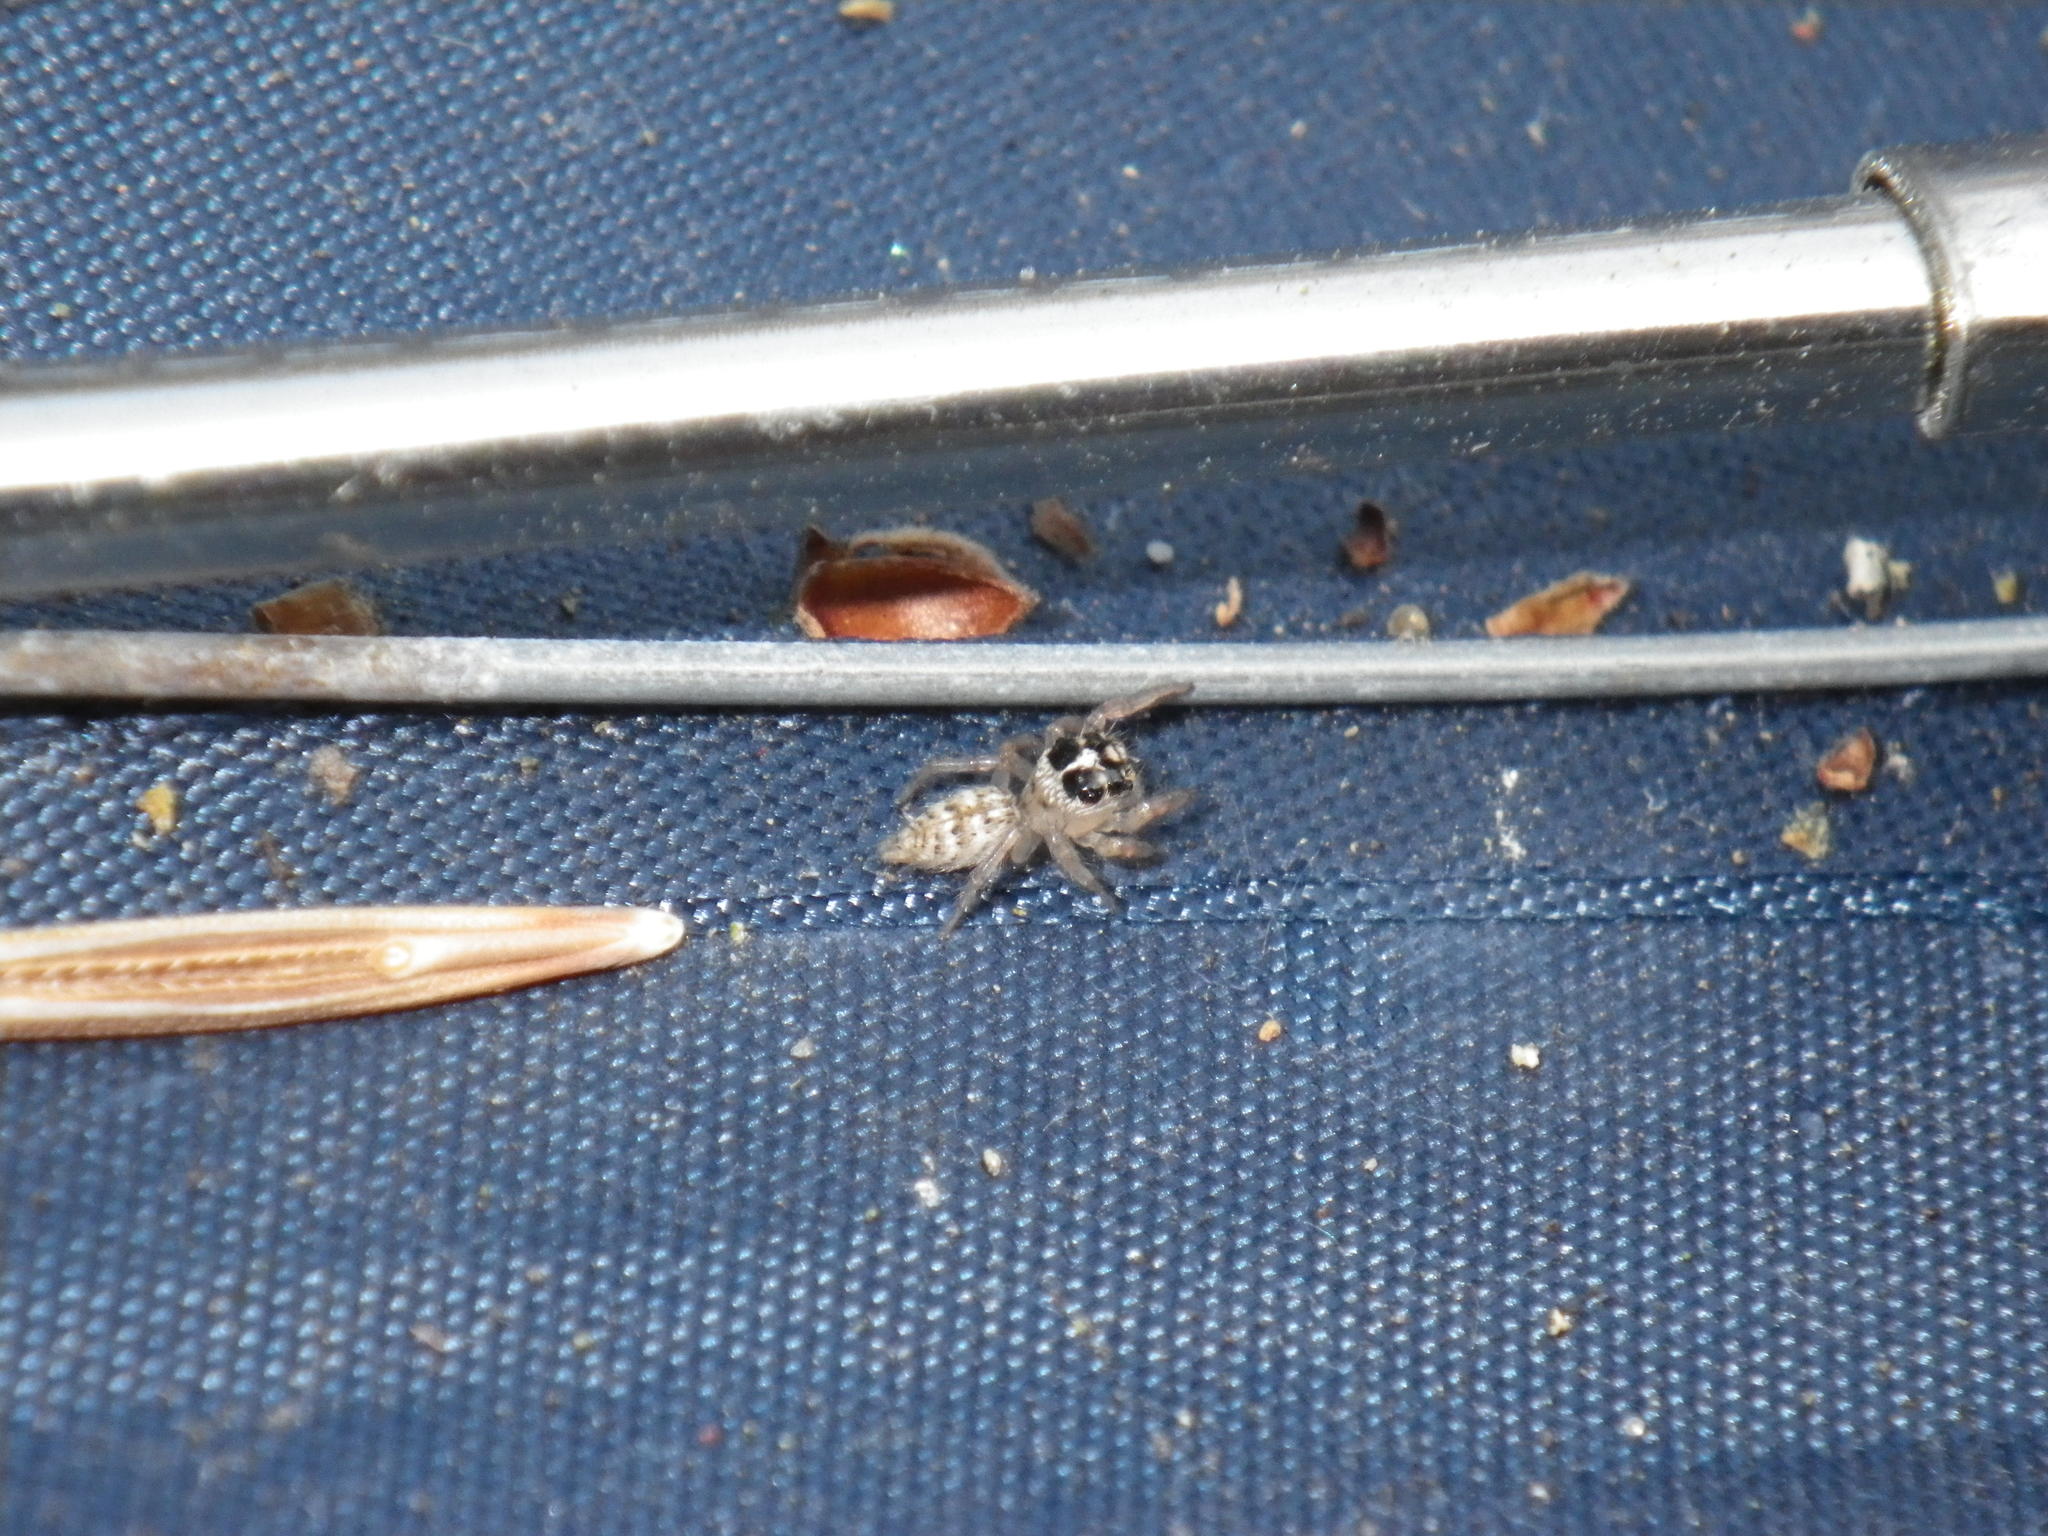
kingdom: Animalia
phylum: Arthropoda
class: Arachnida
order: Araneae
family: Salticidae
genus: Colonus
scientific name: Colonus hesperus
